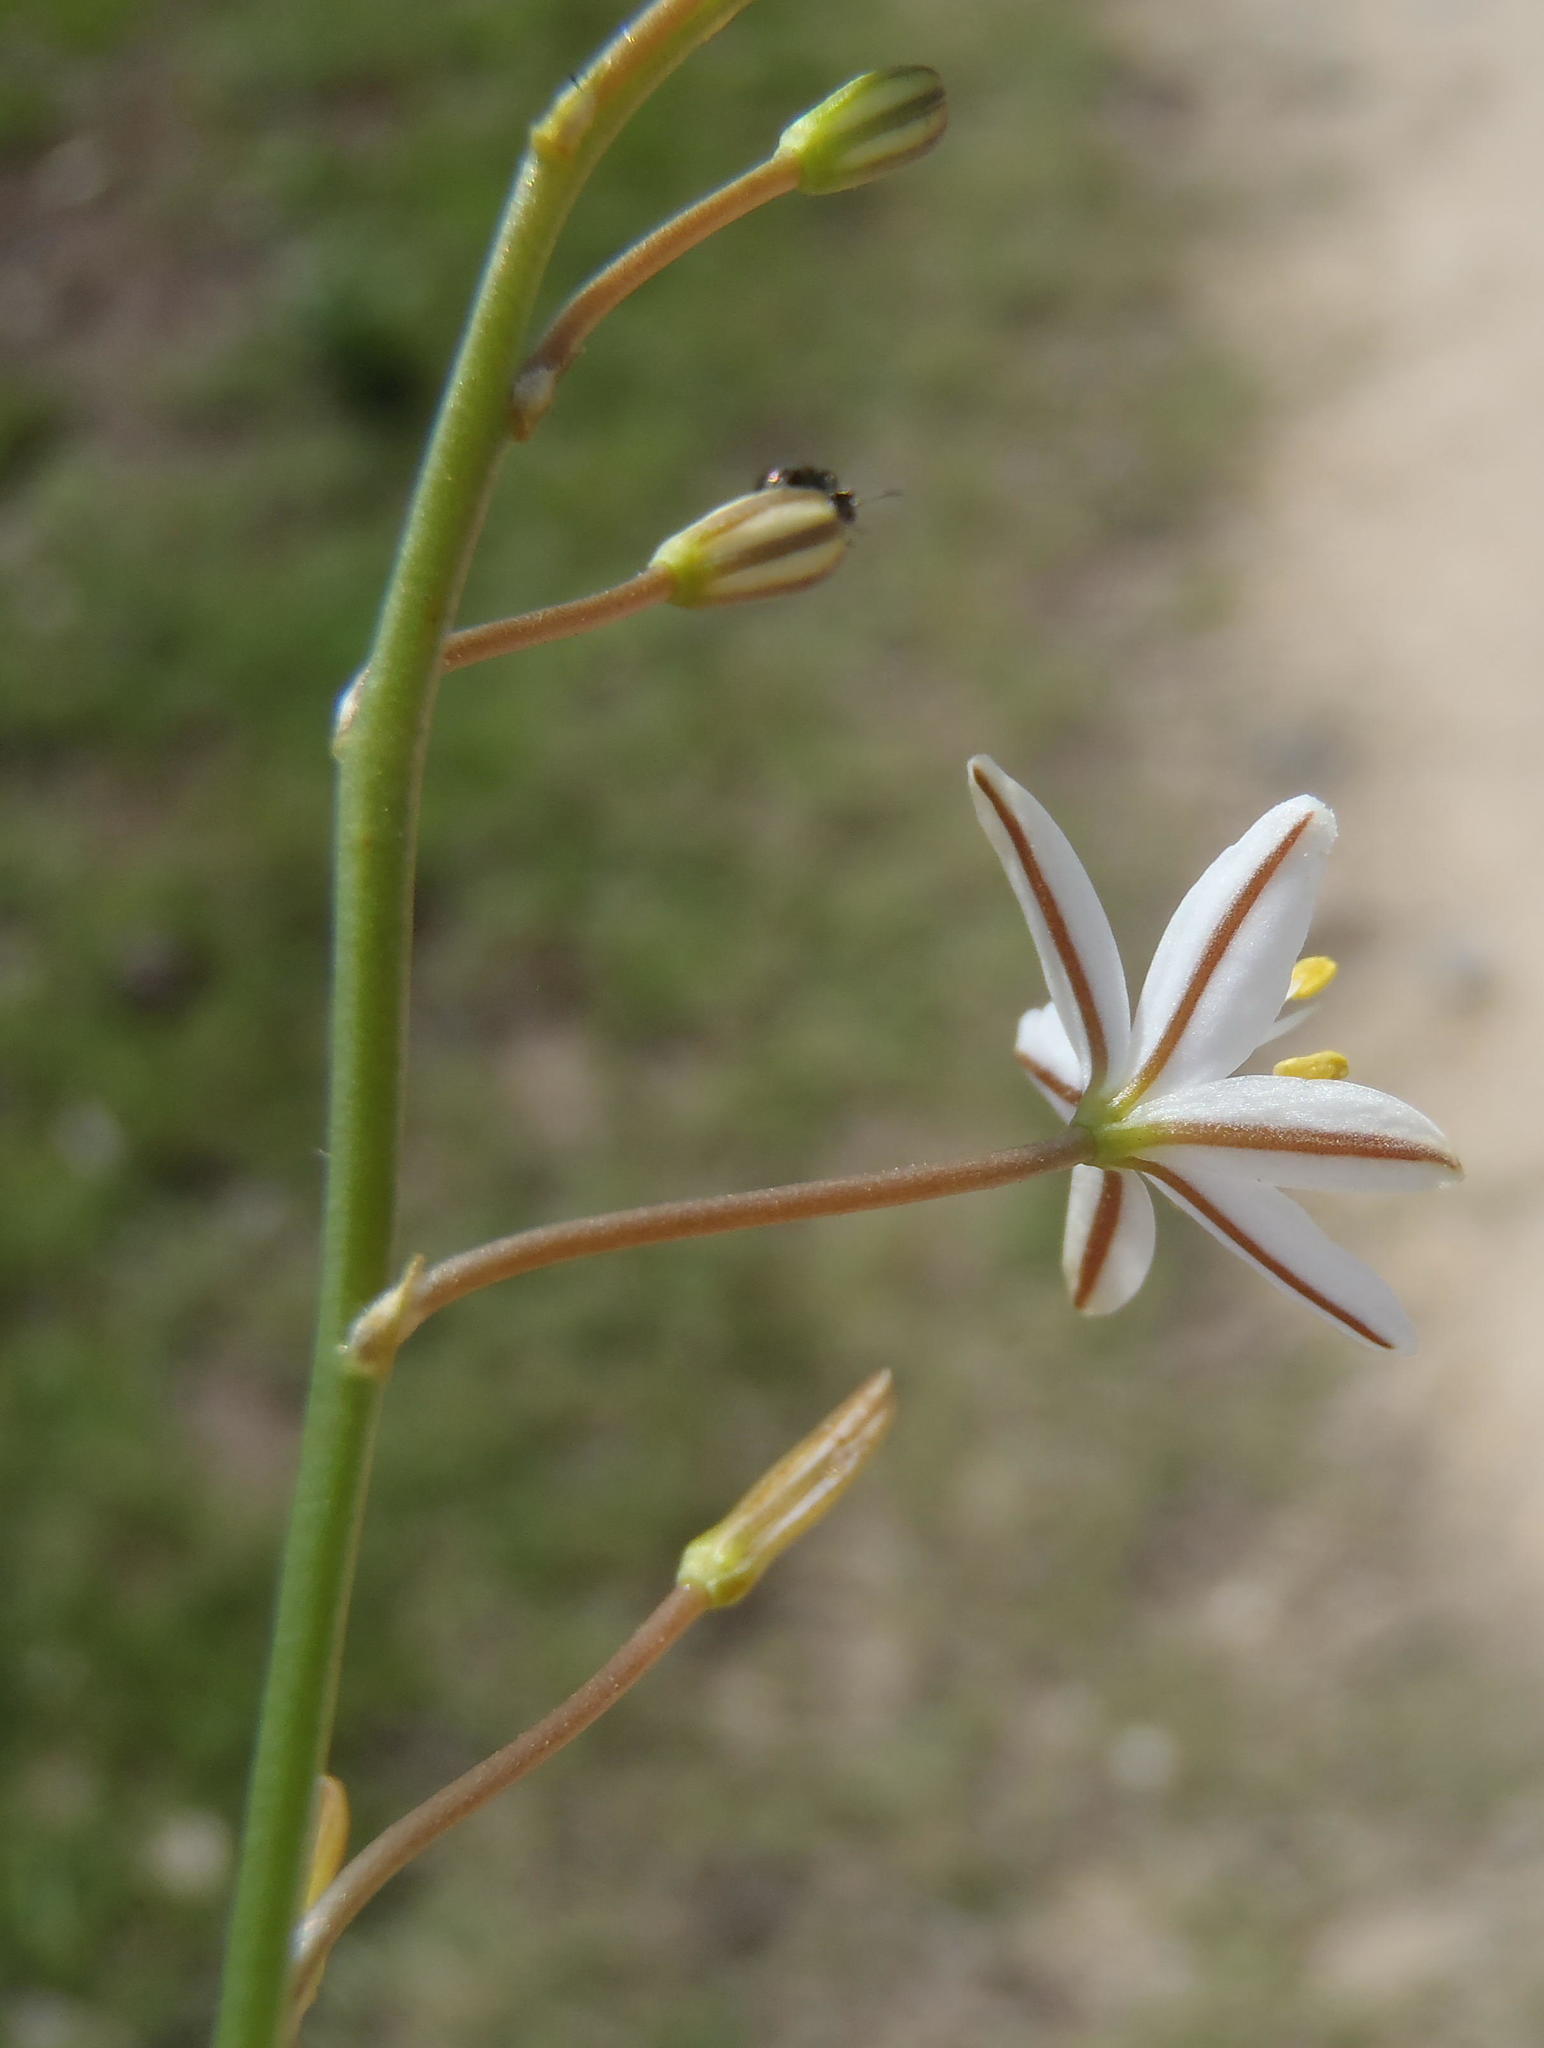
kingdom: Plantae
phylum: Tracheophyta
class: Liliopsida
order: Asparagales
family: Asphodelaceae
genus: Trachyandra
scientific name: Trachyandra ciliata
